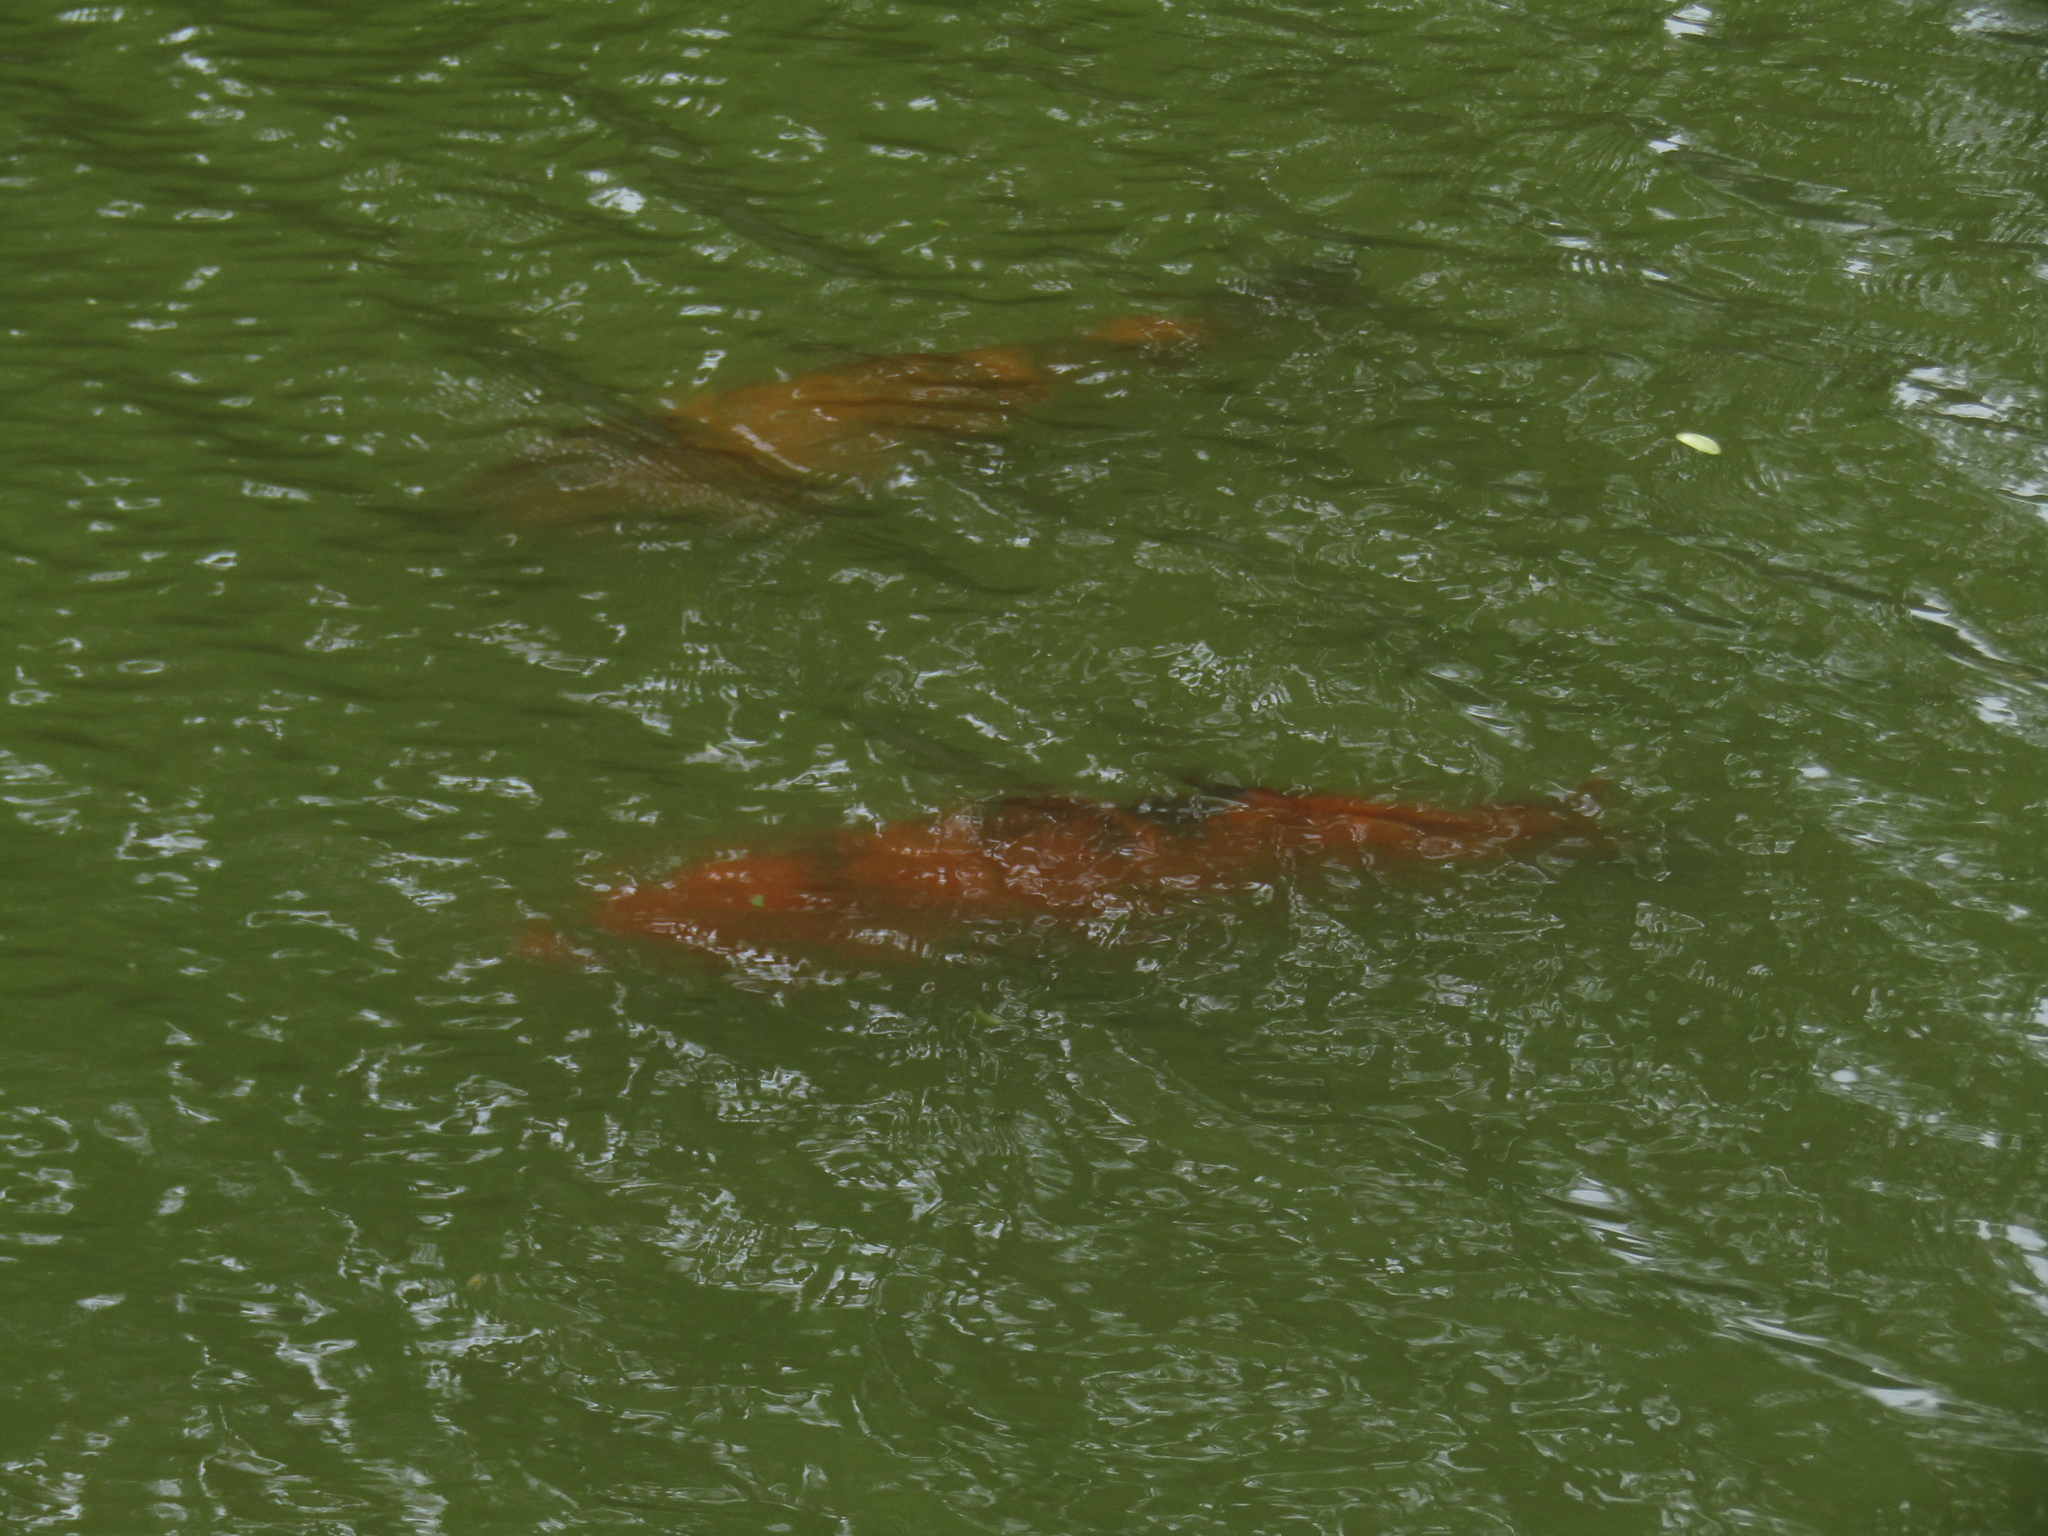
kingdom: Animalia
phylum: Chordata
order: Cypriniformes
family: Cyprinidae
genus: Cyprinus
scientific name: Cyprinus rubrofuscus
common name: Koi
